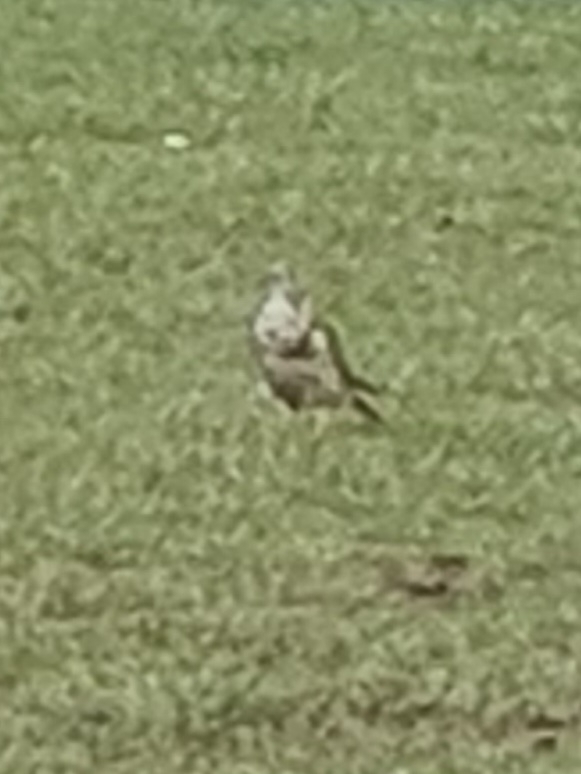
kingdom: Animalia
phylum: Chordata
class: Aves
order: Passeriformes
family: Turdidae
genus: Turdus
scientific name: Turdus viscivorus
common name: Mistle thrush
